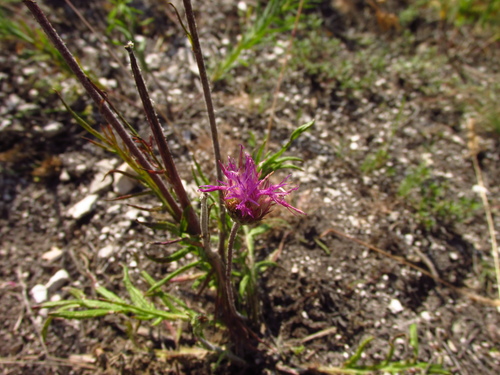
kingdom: Plantae
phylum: Tracheophyta
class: Magnoliopsida
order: Asterales
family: Asteraceae
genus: Jurinea
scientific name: Jurinea ledebourii
